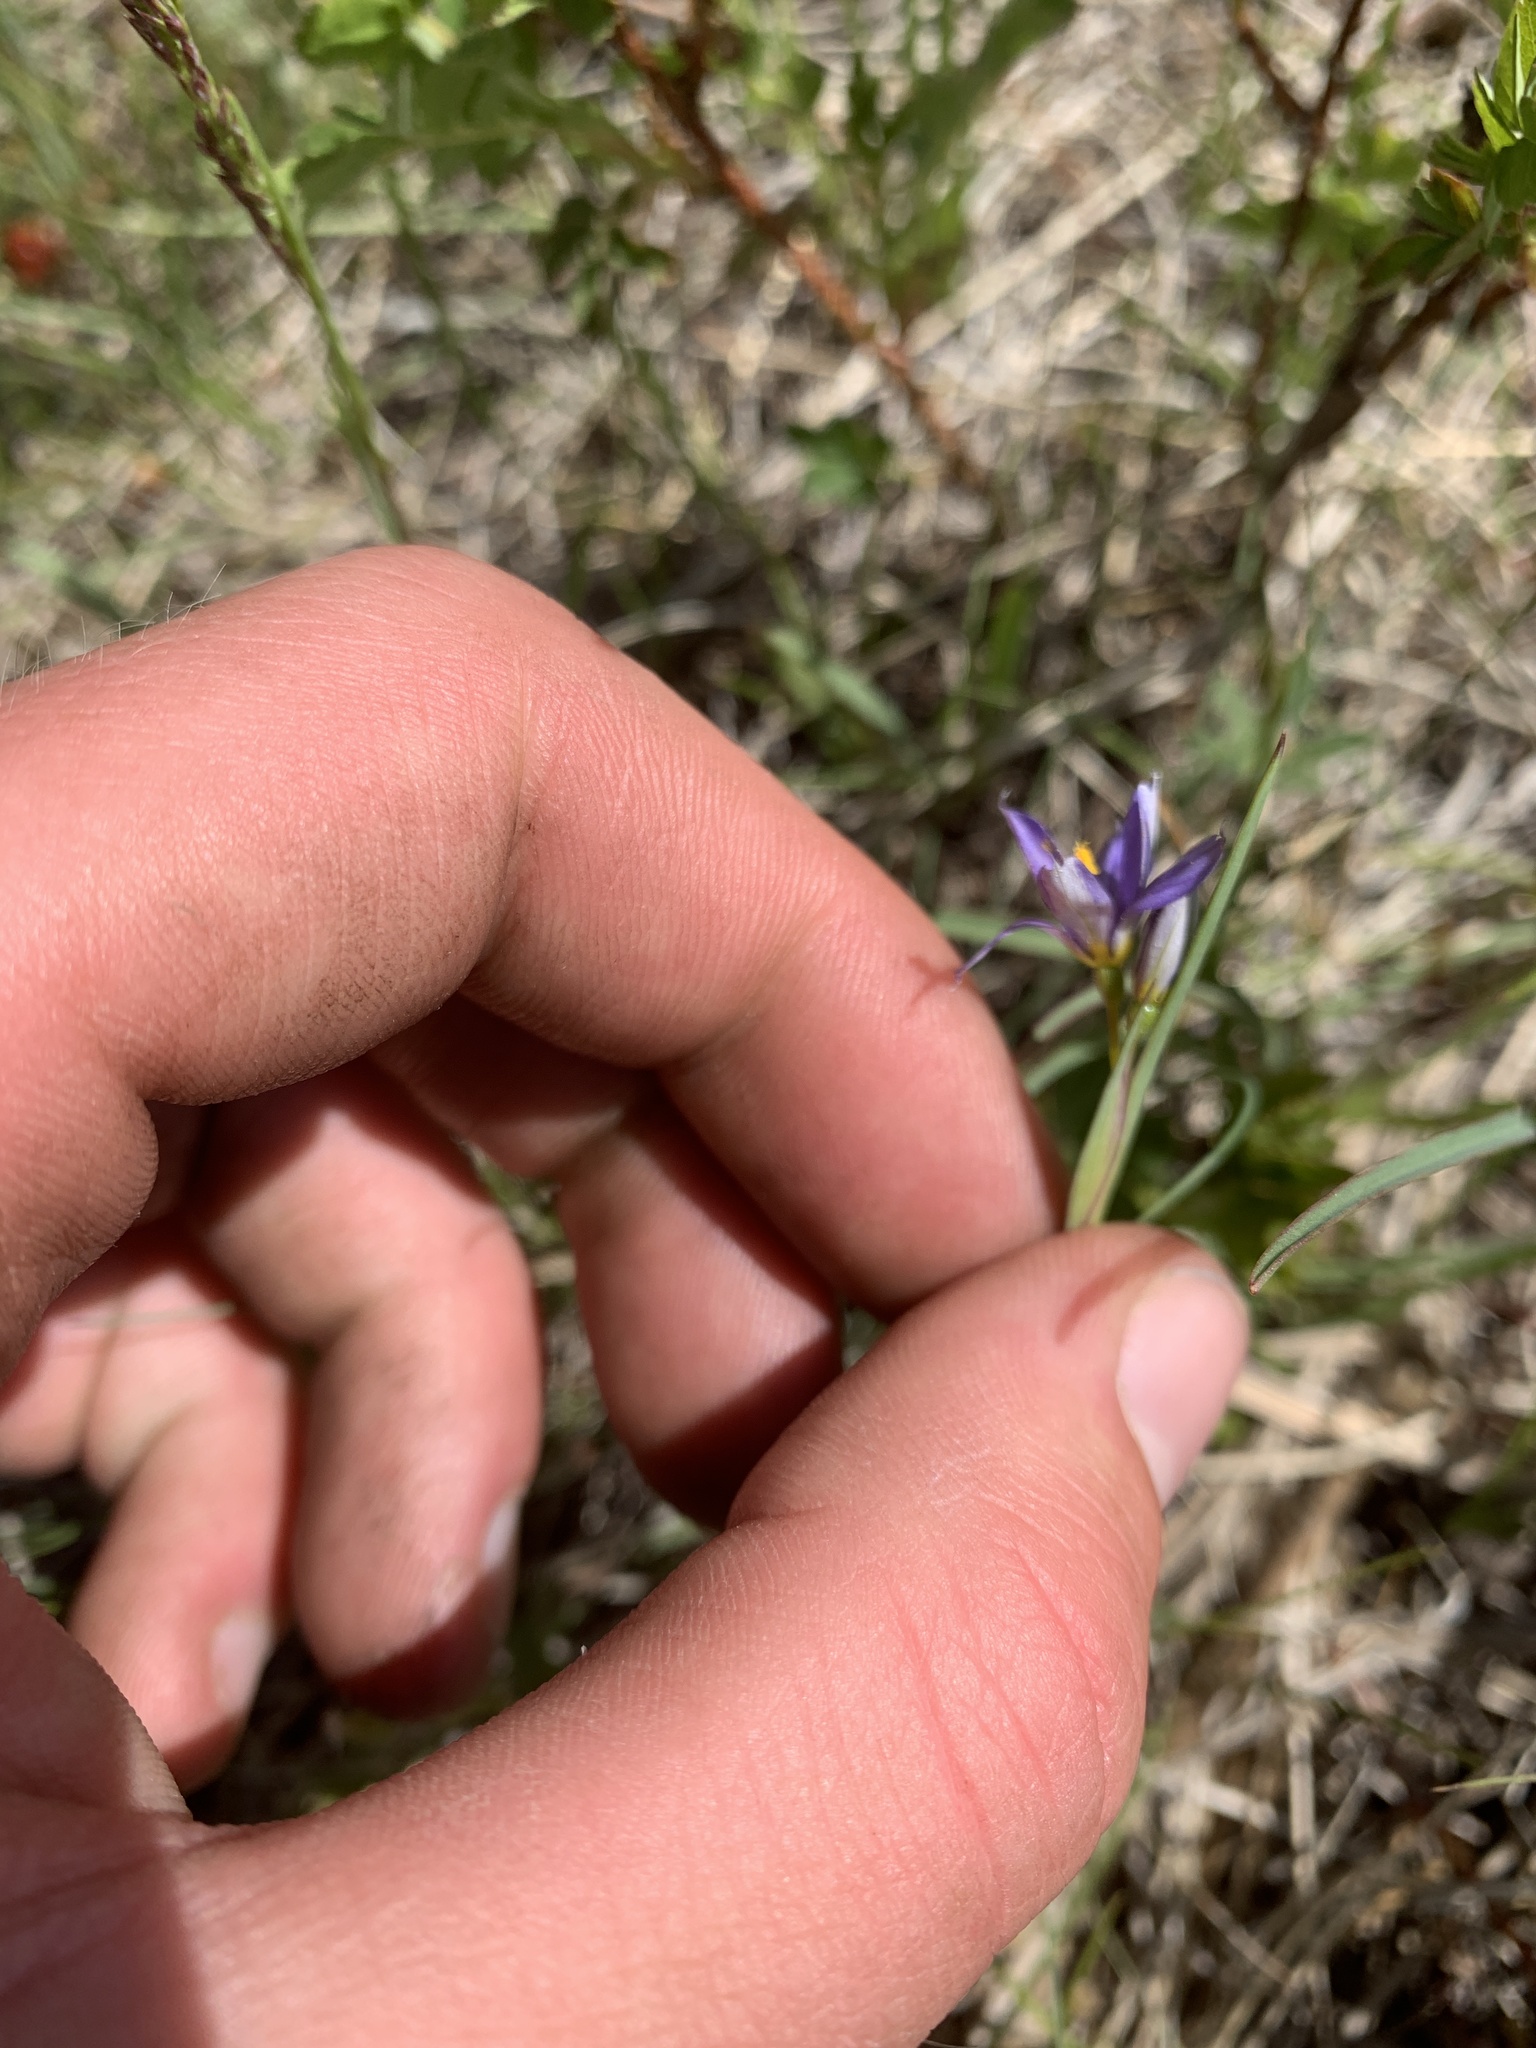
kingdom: Plantae
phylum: Tracheophyta
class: Liliopsida
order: Asparagales
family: Iridaceae
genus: Sisyrinchium
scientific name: Sisyrinchium montanum
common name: American blue-eyed-grass
